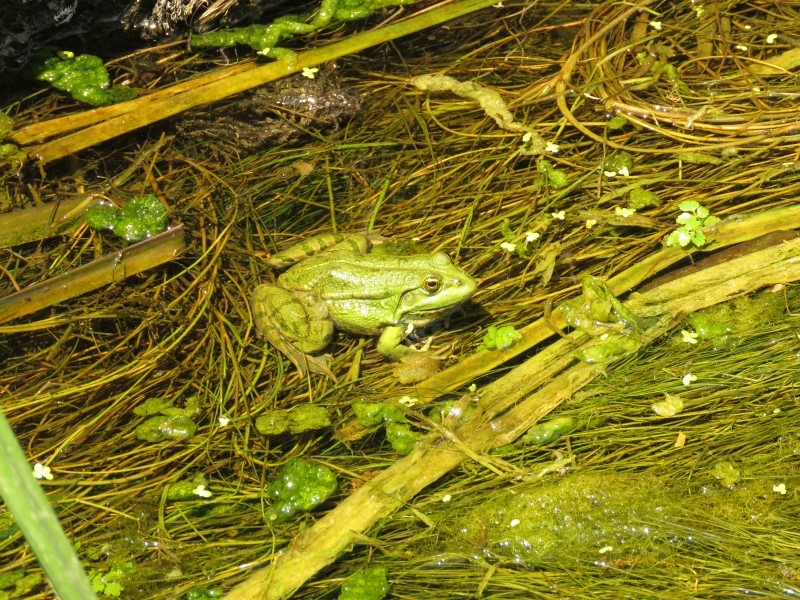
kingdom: Animalia
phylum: Chordata
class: Amphibia
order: Anura
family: Ranidae
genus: Pelophylax
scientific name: Pelophylax ridibundus
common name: Marsh frog
